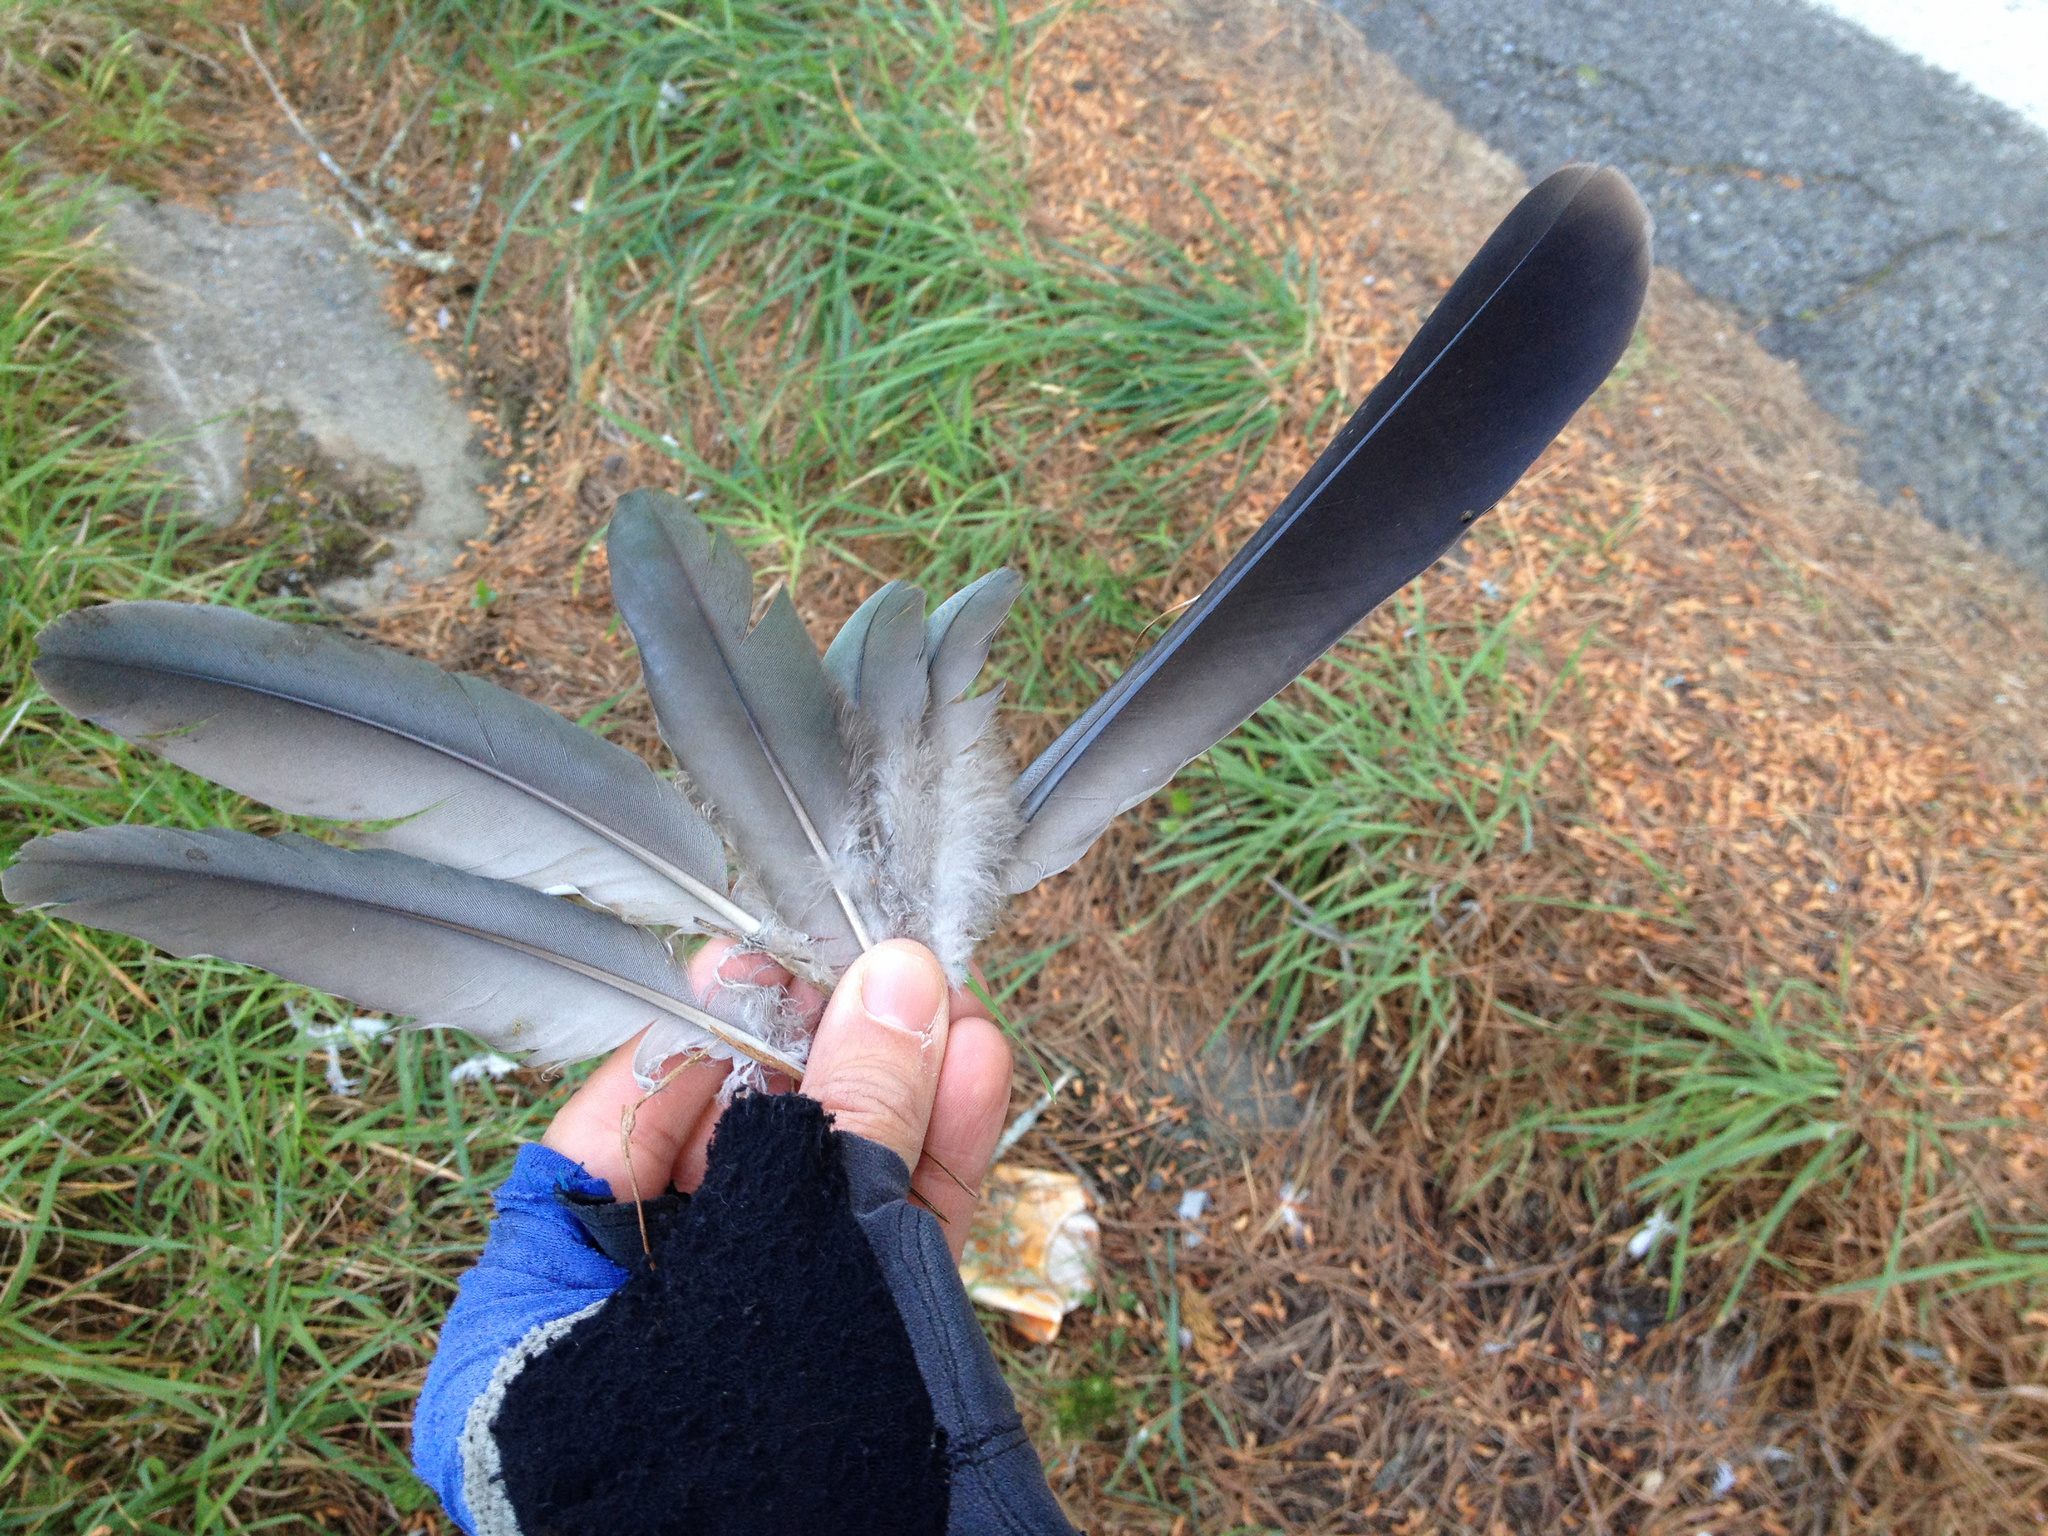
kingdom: Animalia
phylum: Chordata
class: Aves
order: Columbiformes
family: Columbidae
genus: Hemiphaga
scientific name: Hemiphaga novaeseelandiae
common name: New zealand pigeon
